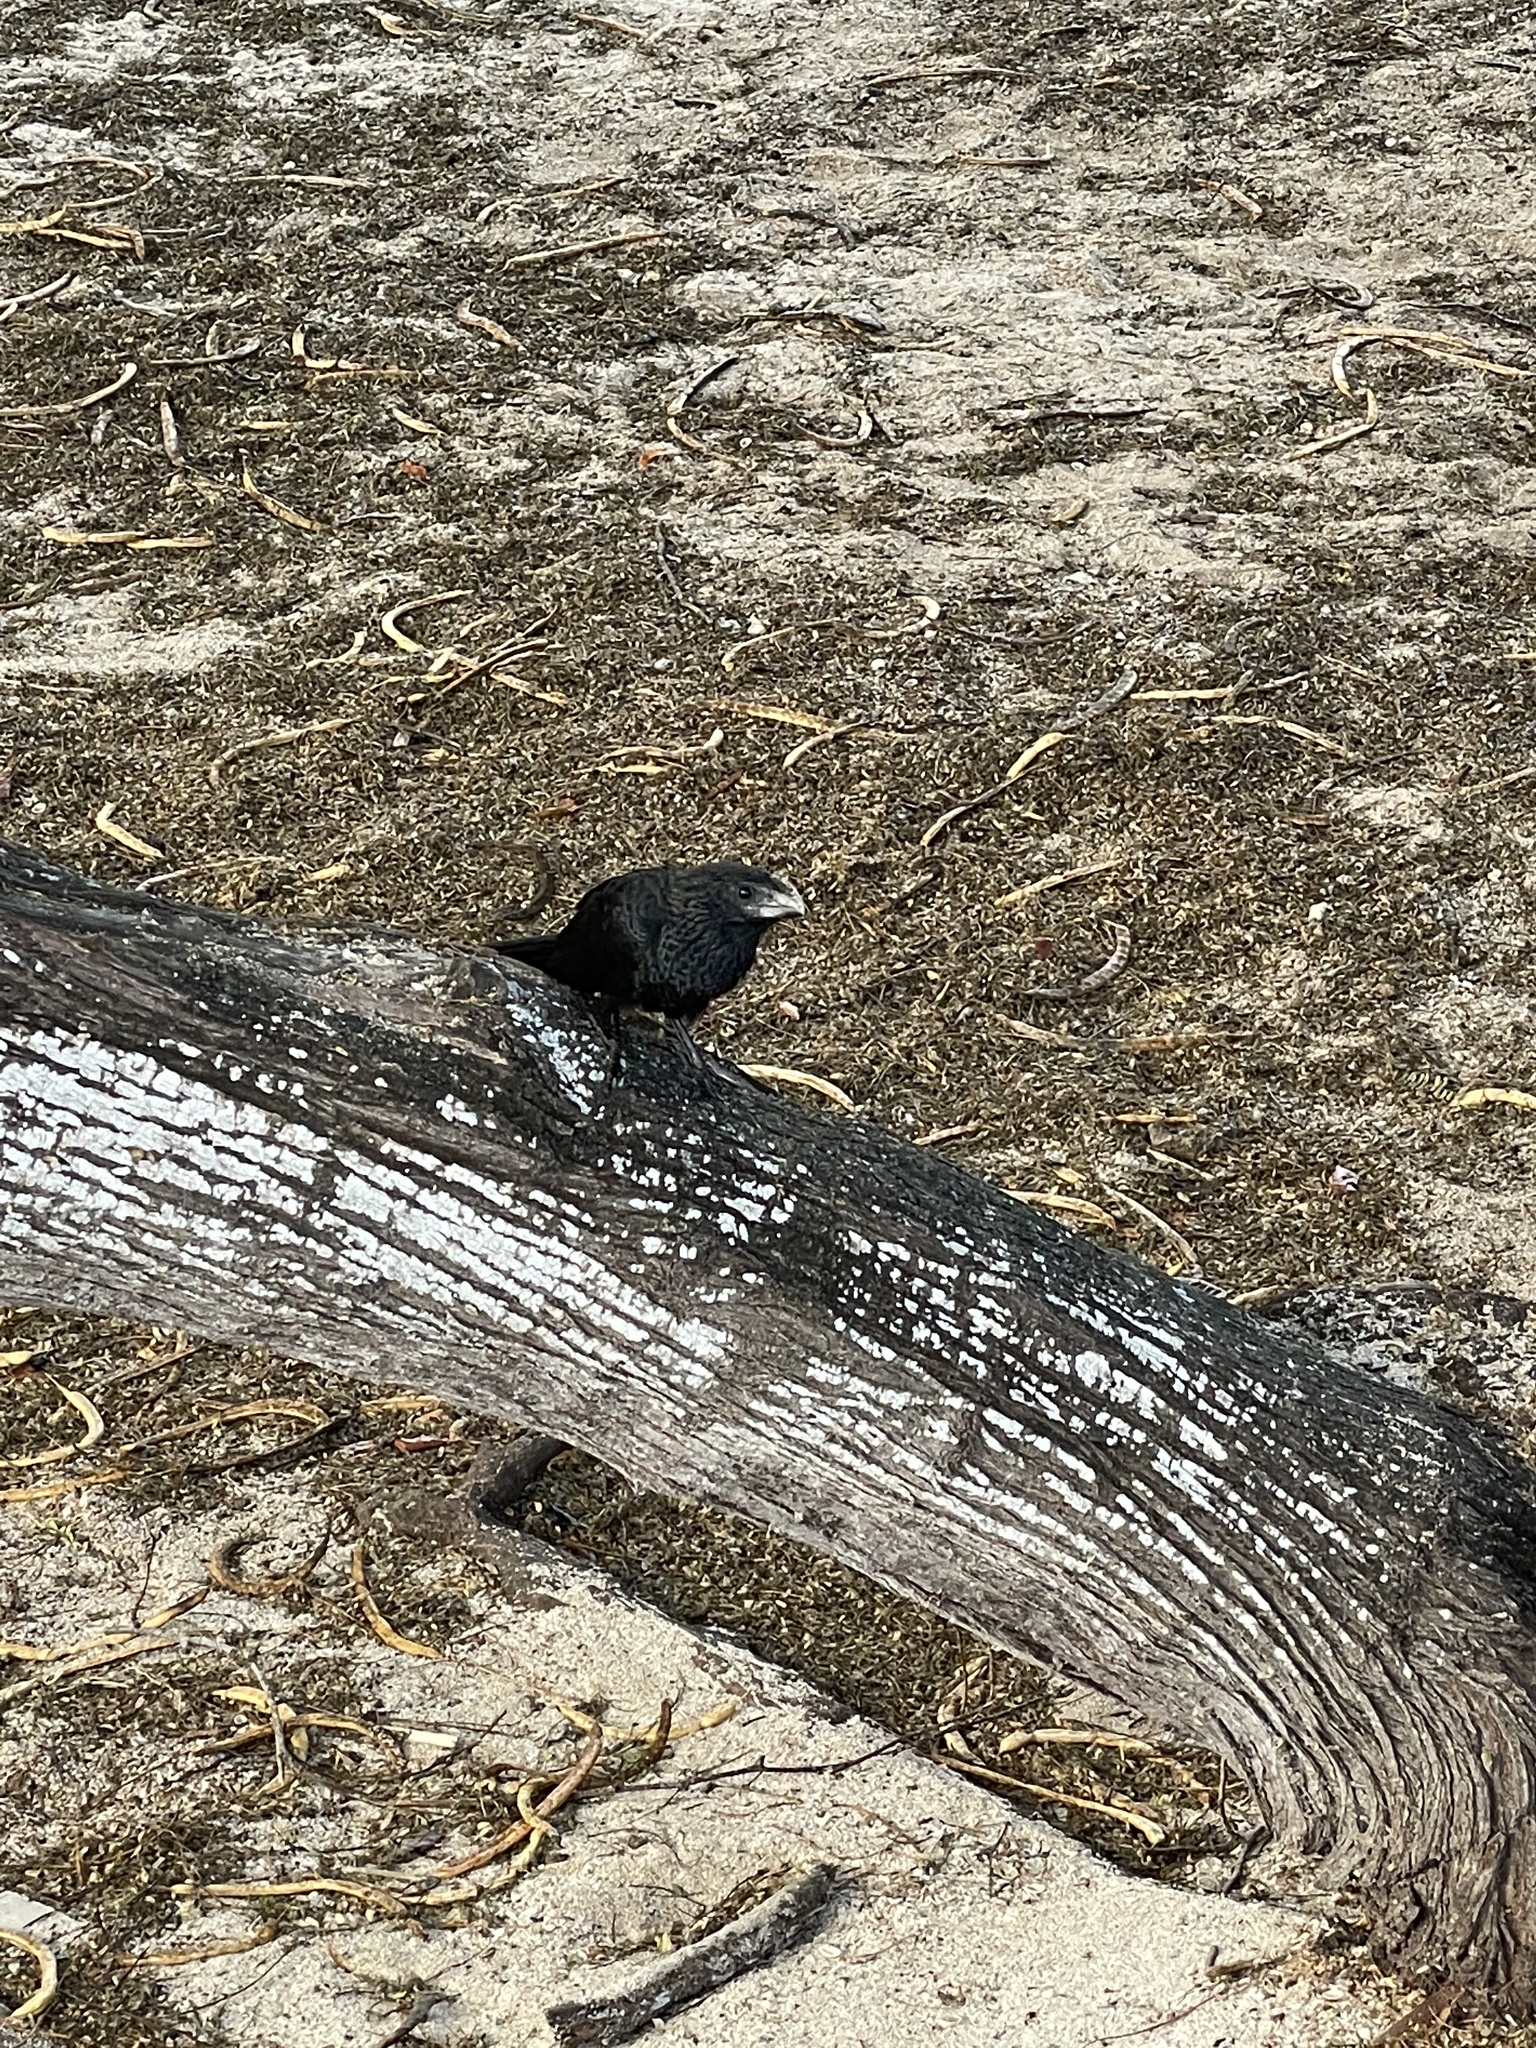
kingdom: Animalia
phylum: Chordata
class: Aves
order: Cuculiformes
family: Cuculidae
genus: Crotophaga
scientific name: Crotophaga ani
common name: Smooth-billed ani
